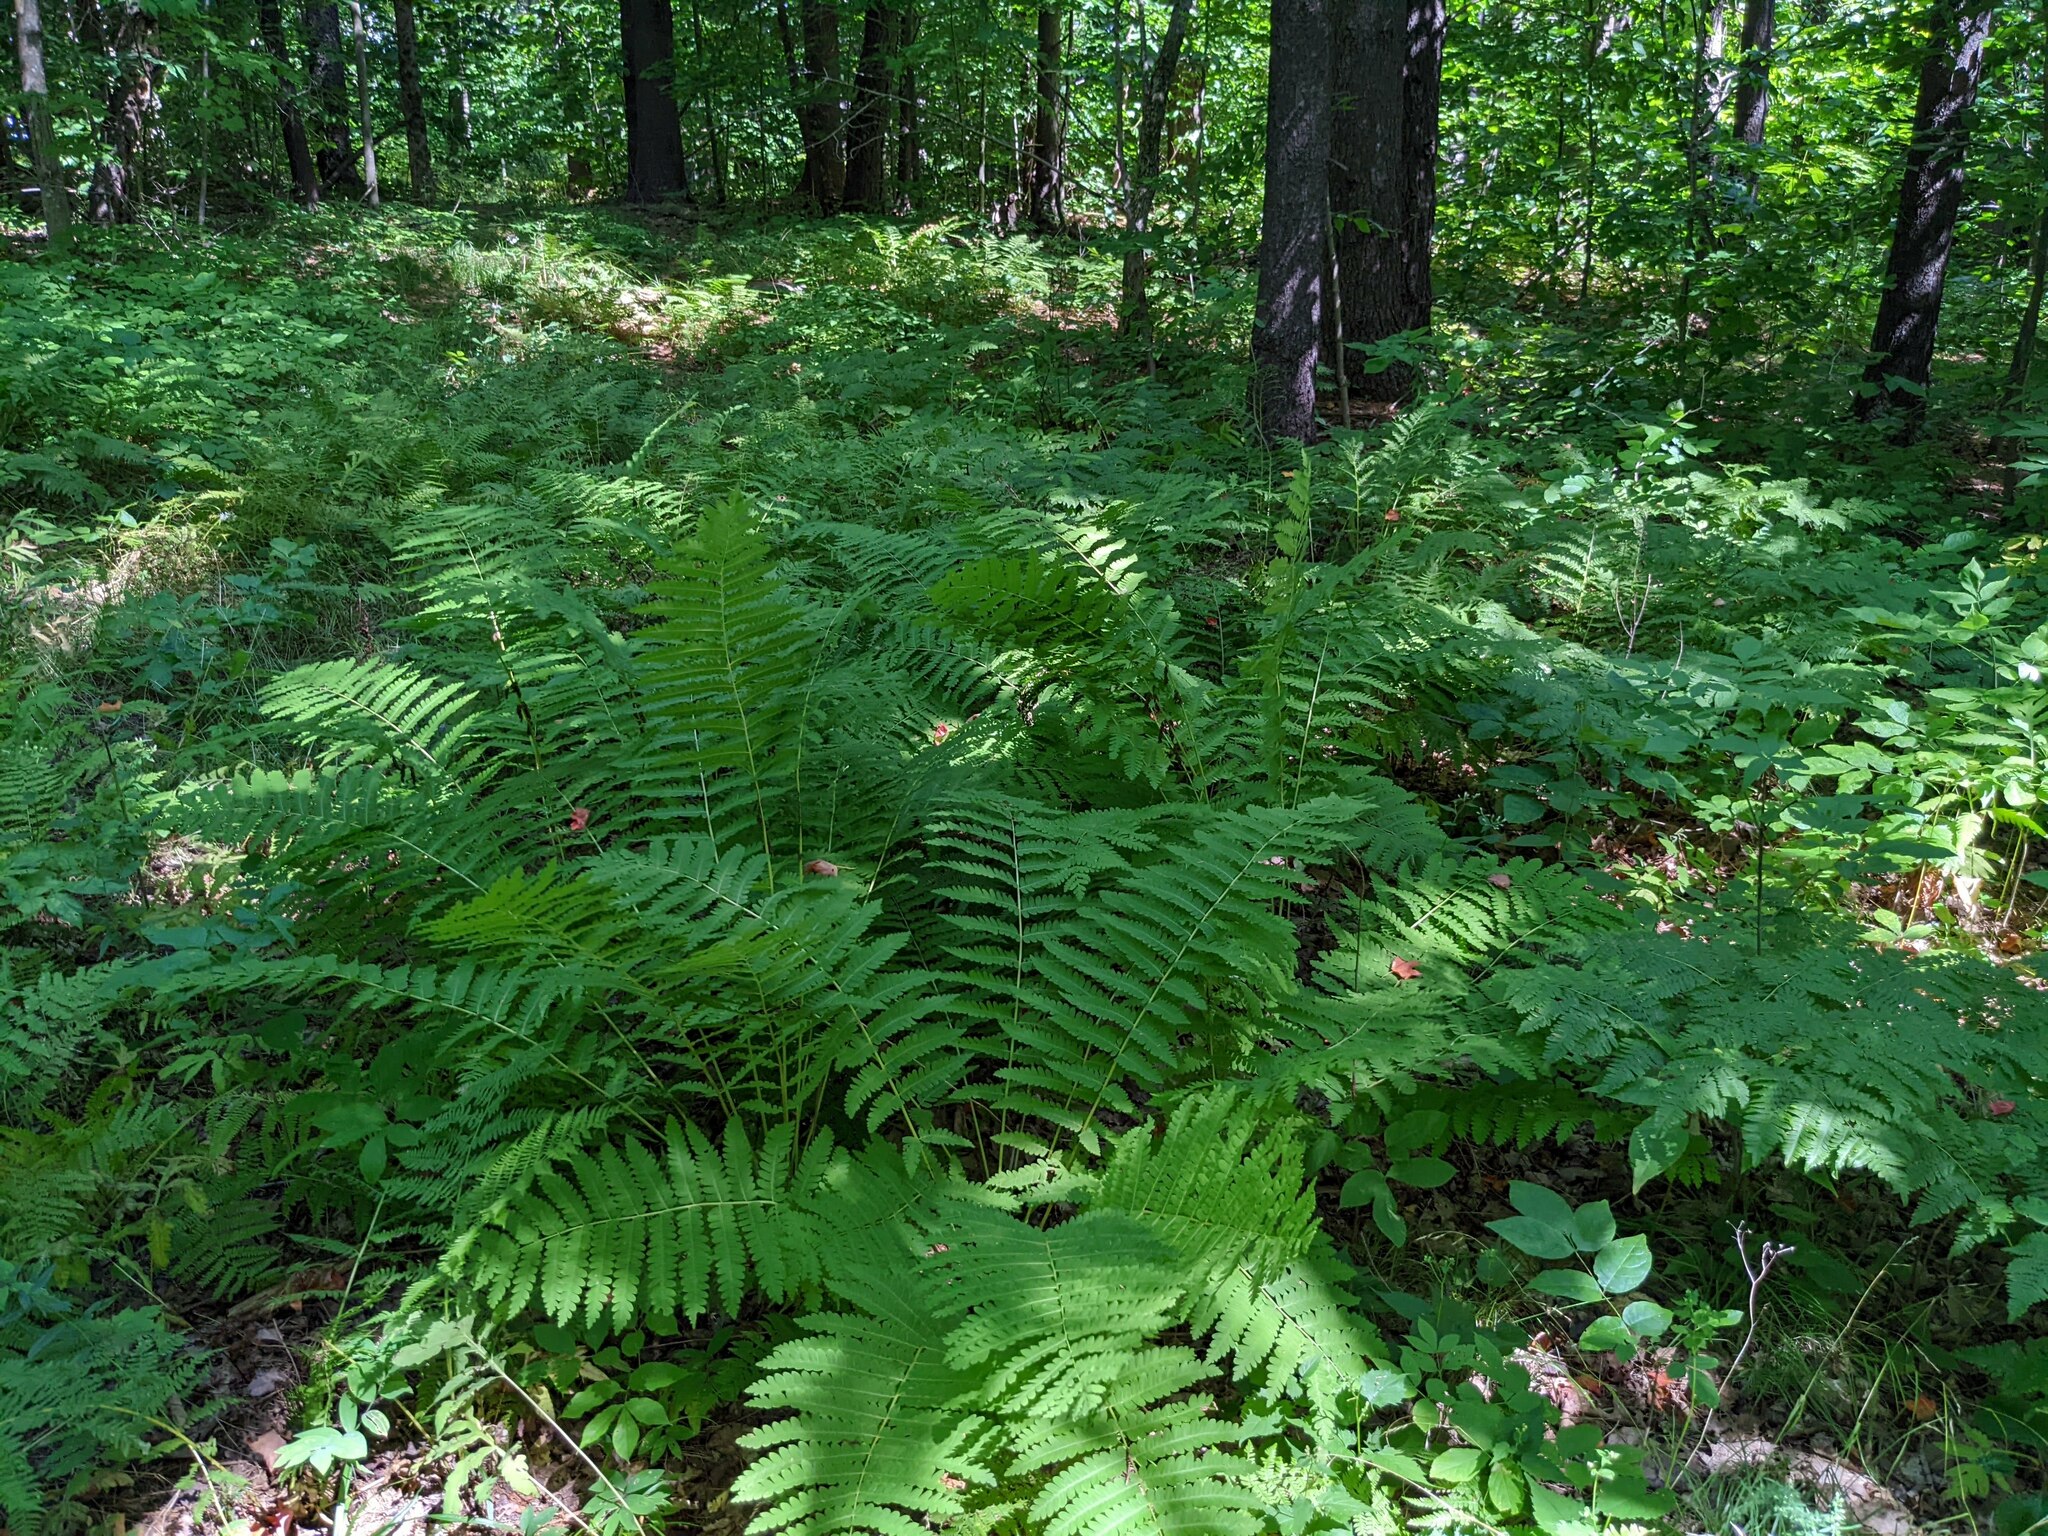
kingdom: Plantae
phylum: Tracheophyta
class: Polypodiopsida
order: Osmundales
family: Osmundaceae
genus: Claytosmunda
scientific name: Claytosmunda claytoniana
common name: Clayton's fern
